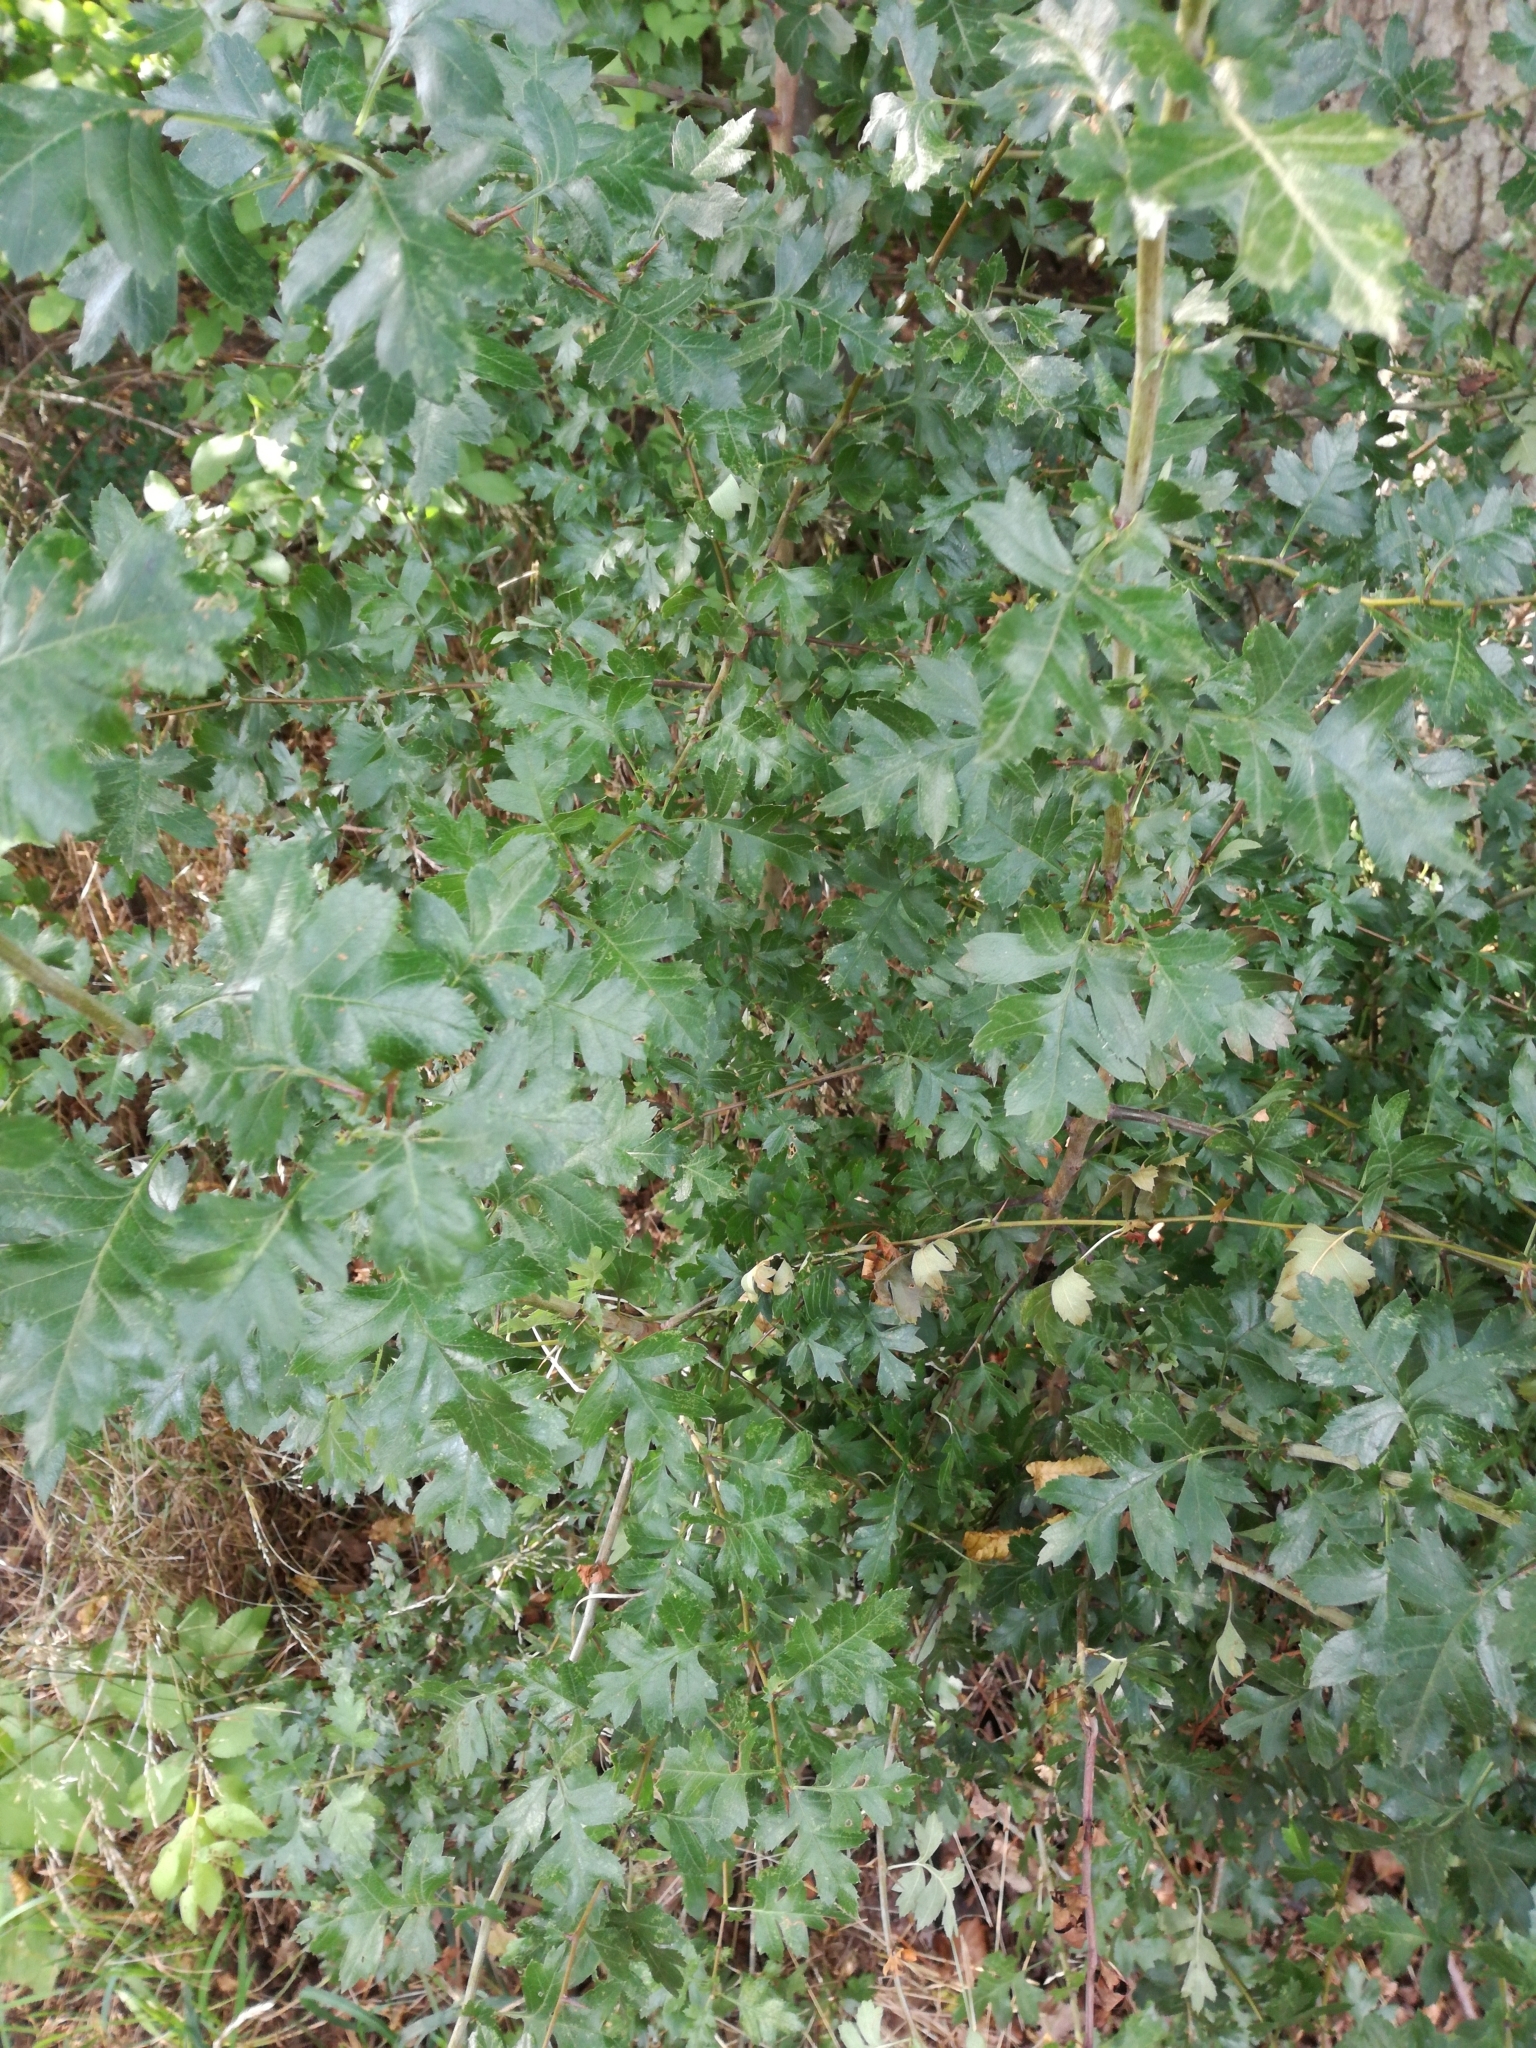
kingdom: Plantae
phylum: Tracheophyta
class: Magnoliopsida
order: Rosales
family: Rosaceae
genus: Crataegus
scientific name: Crataegus monogyna
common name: Hawthorn
